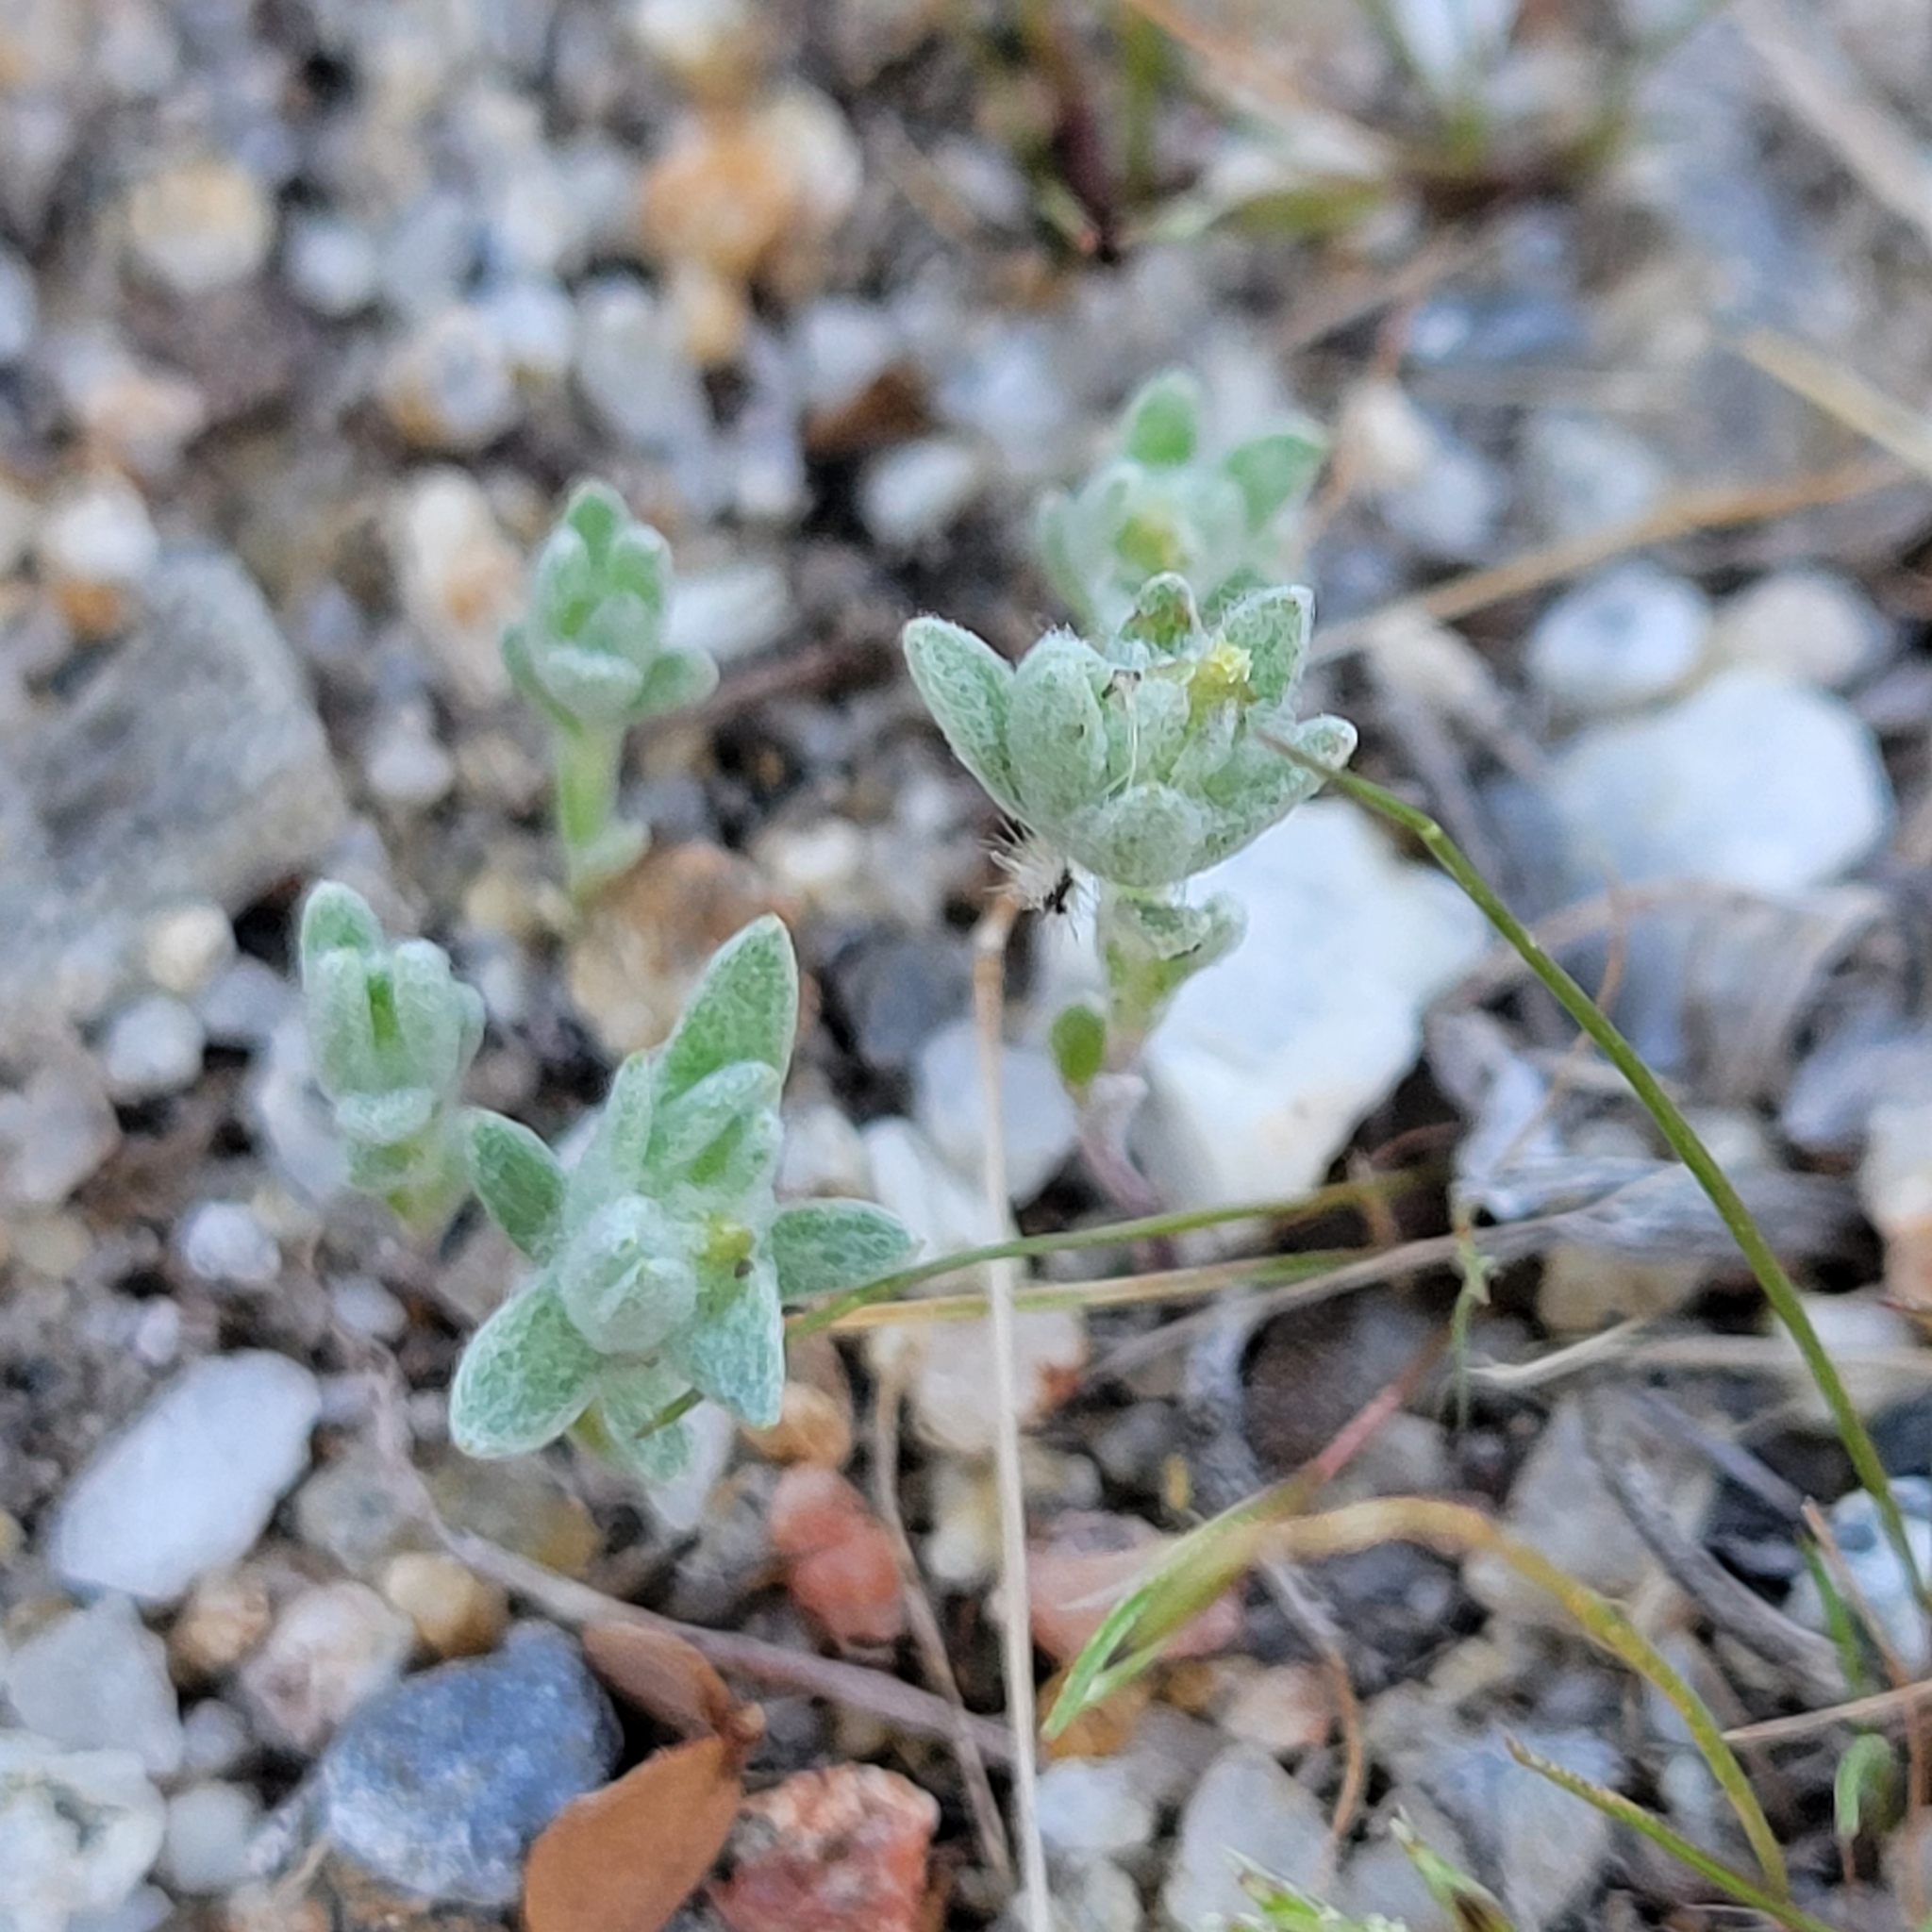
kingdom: Plantae
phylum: Tracheophyta
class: Magnoliopsida
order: Asterales
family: Asteraceae
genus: Logfia
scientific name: Logfia depressa
